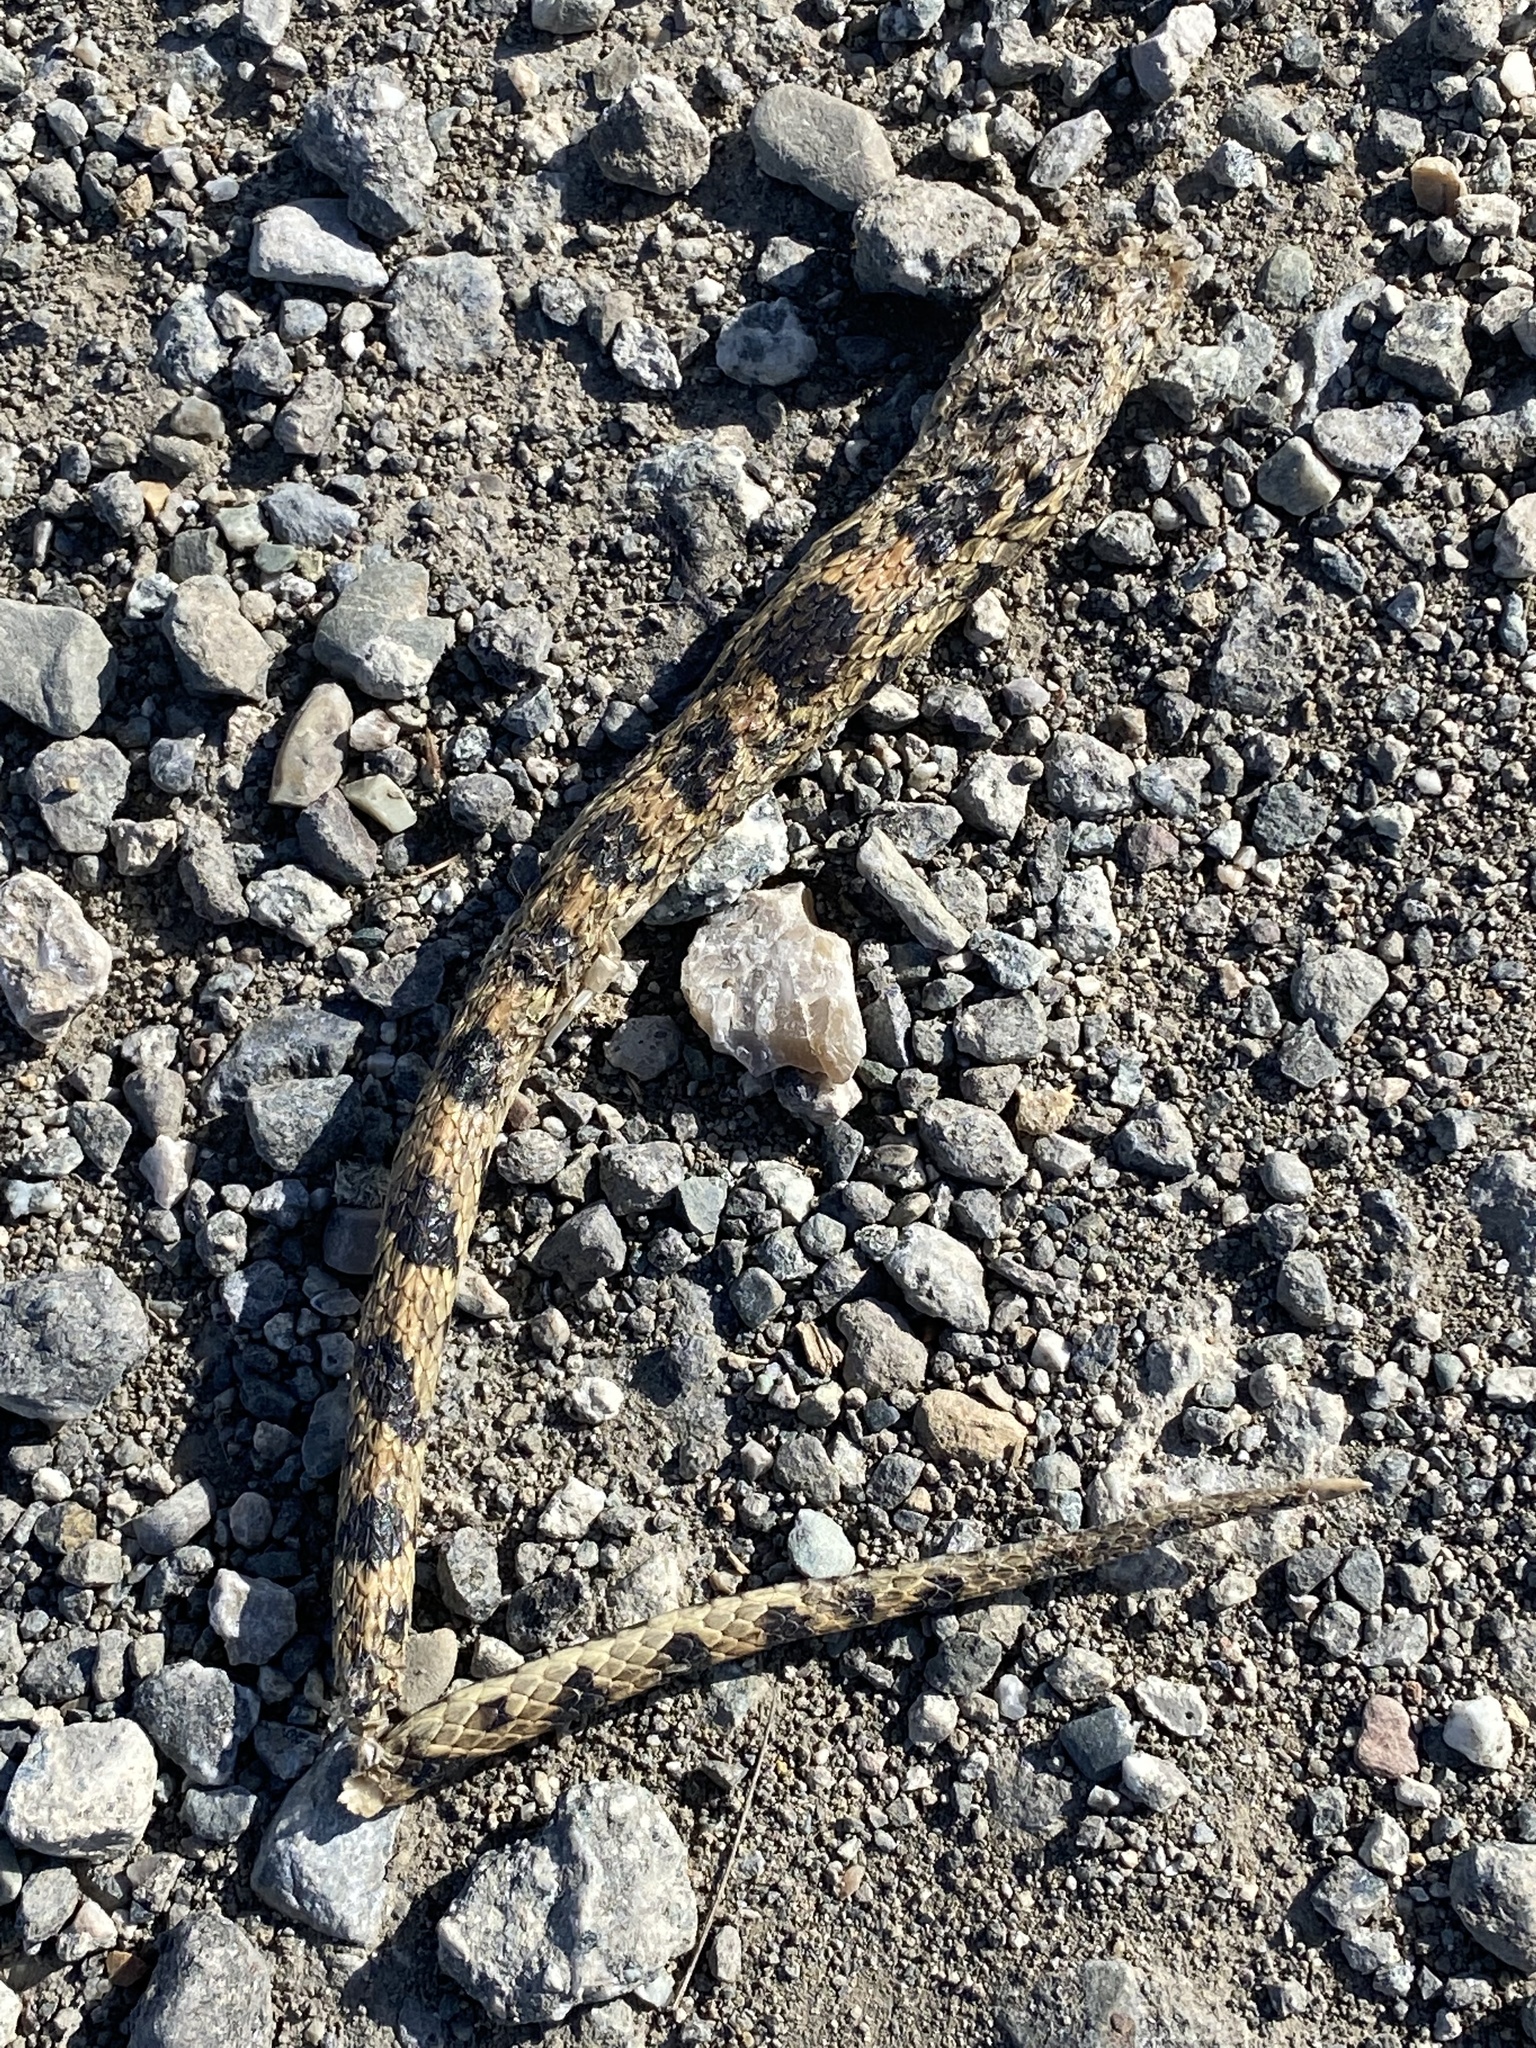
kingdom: Animalia
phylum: Chordata
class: Squamata
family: Colubridae
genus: Pituophis
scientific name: Pituophis catenifer
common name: Gopher snake
